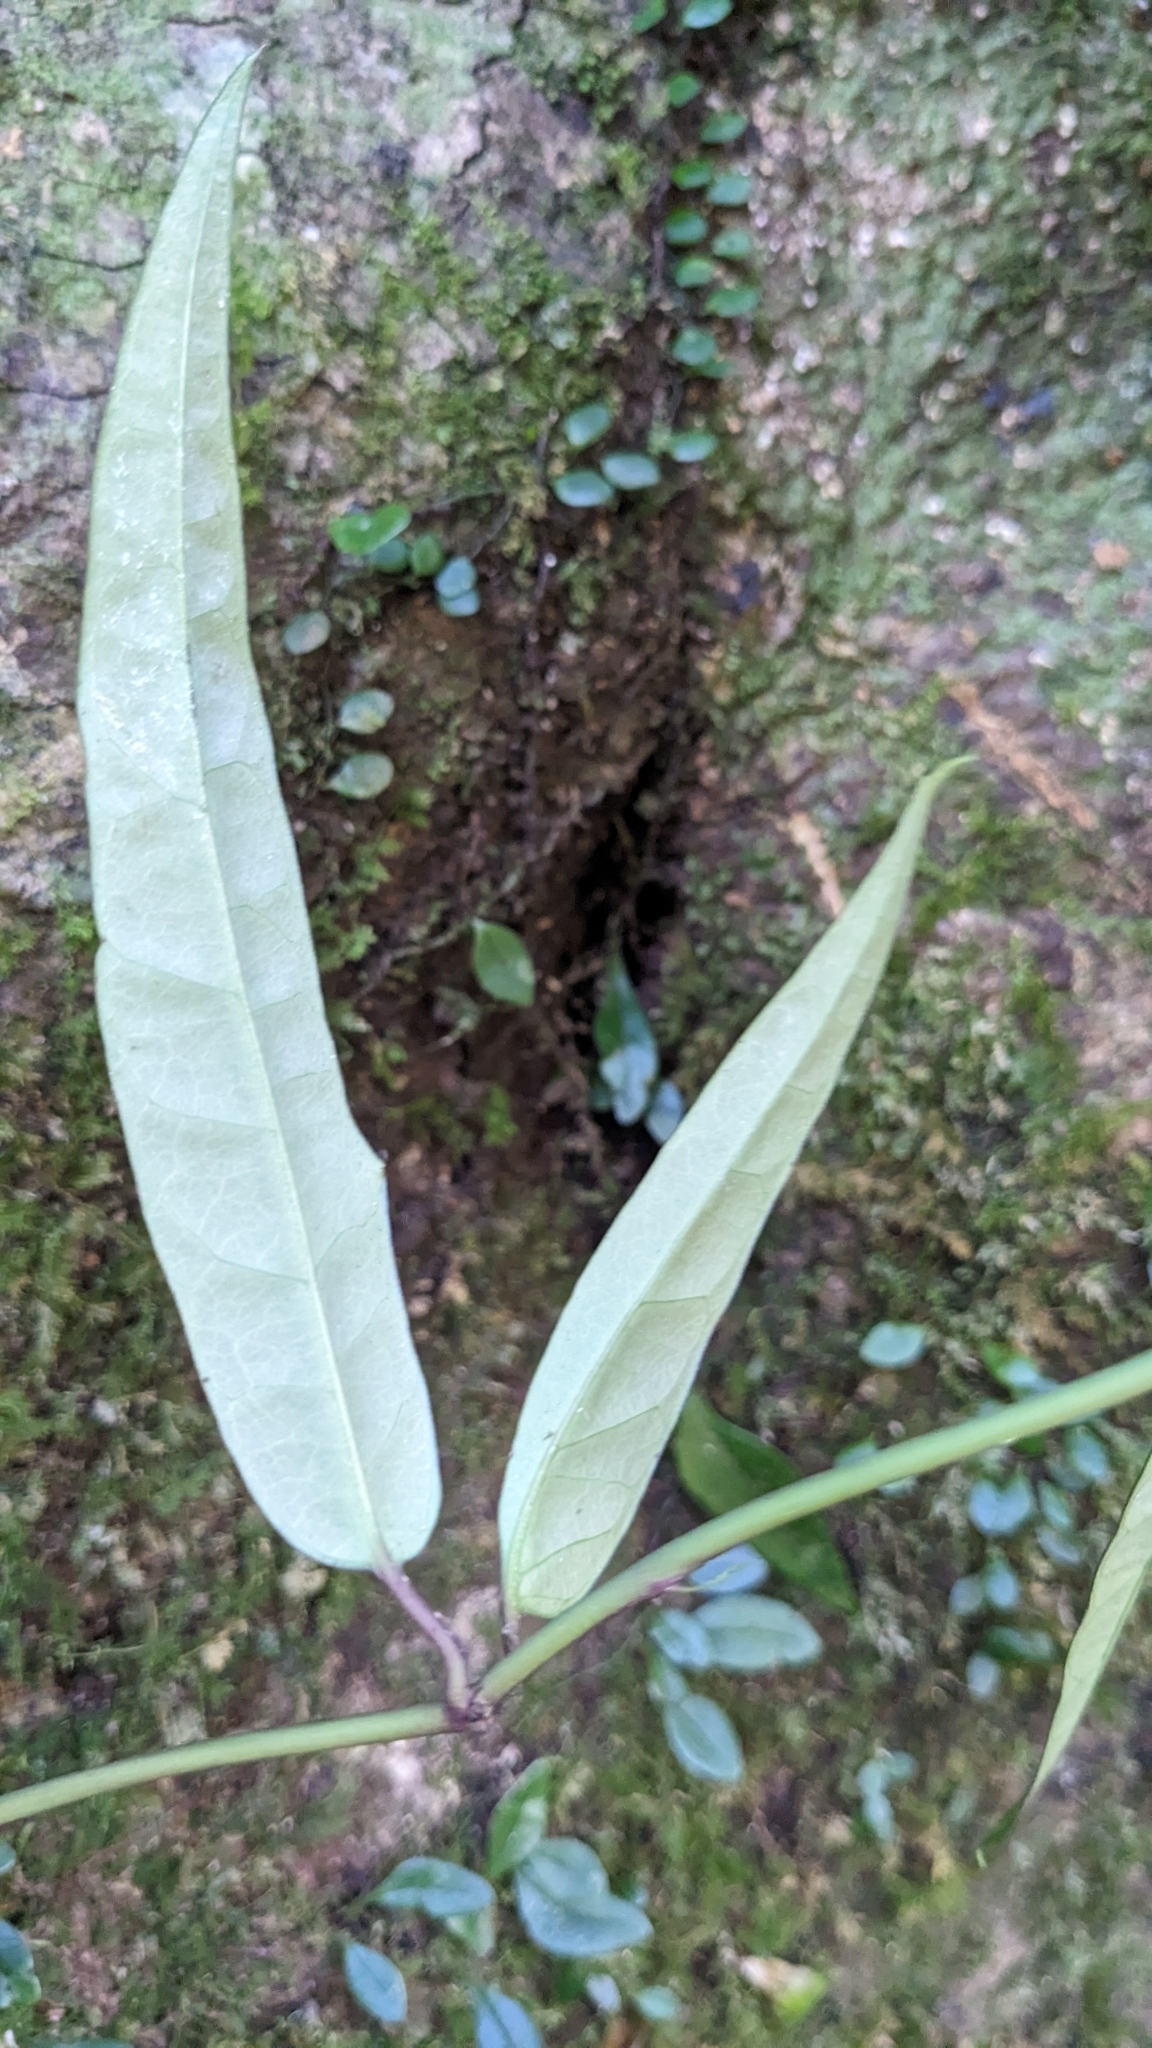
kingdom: Plantae
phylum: Tracheophyta
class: Magnoliopsida
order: Gentianales
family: Loganiaceae
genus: Gardneria
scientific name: Gardneria multiflora
